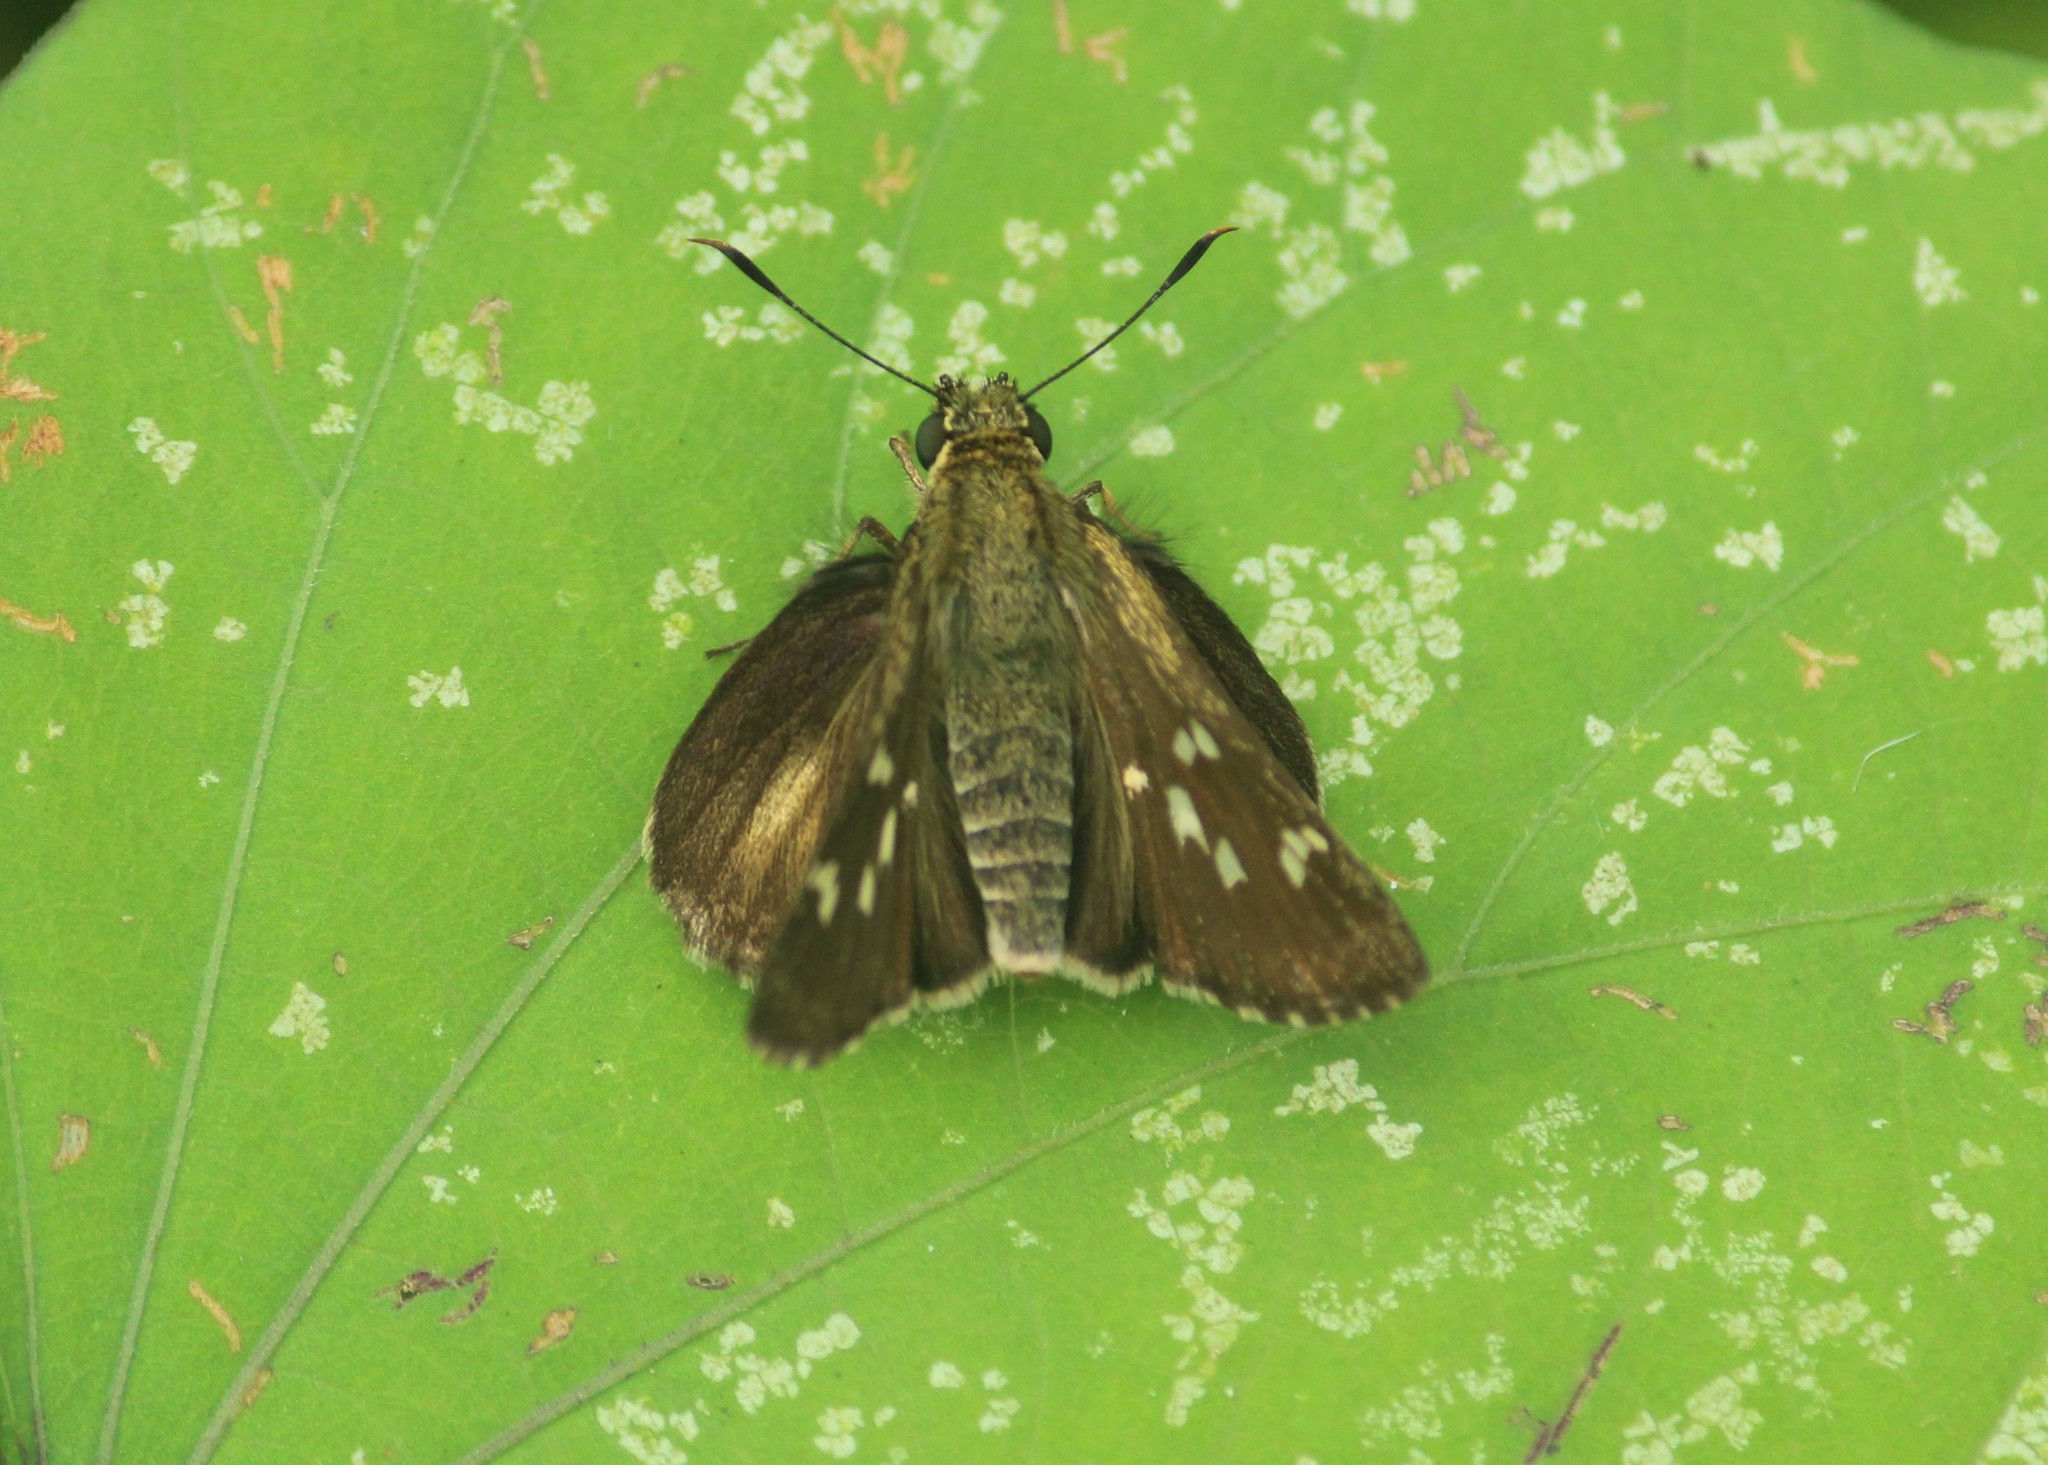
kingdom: Animalia
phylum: Arthropoda
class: Insecta
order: Lepidoptera
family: Hesperiidae
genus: Halpe
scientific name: Halpe porus
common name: Moore's ace
